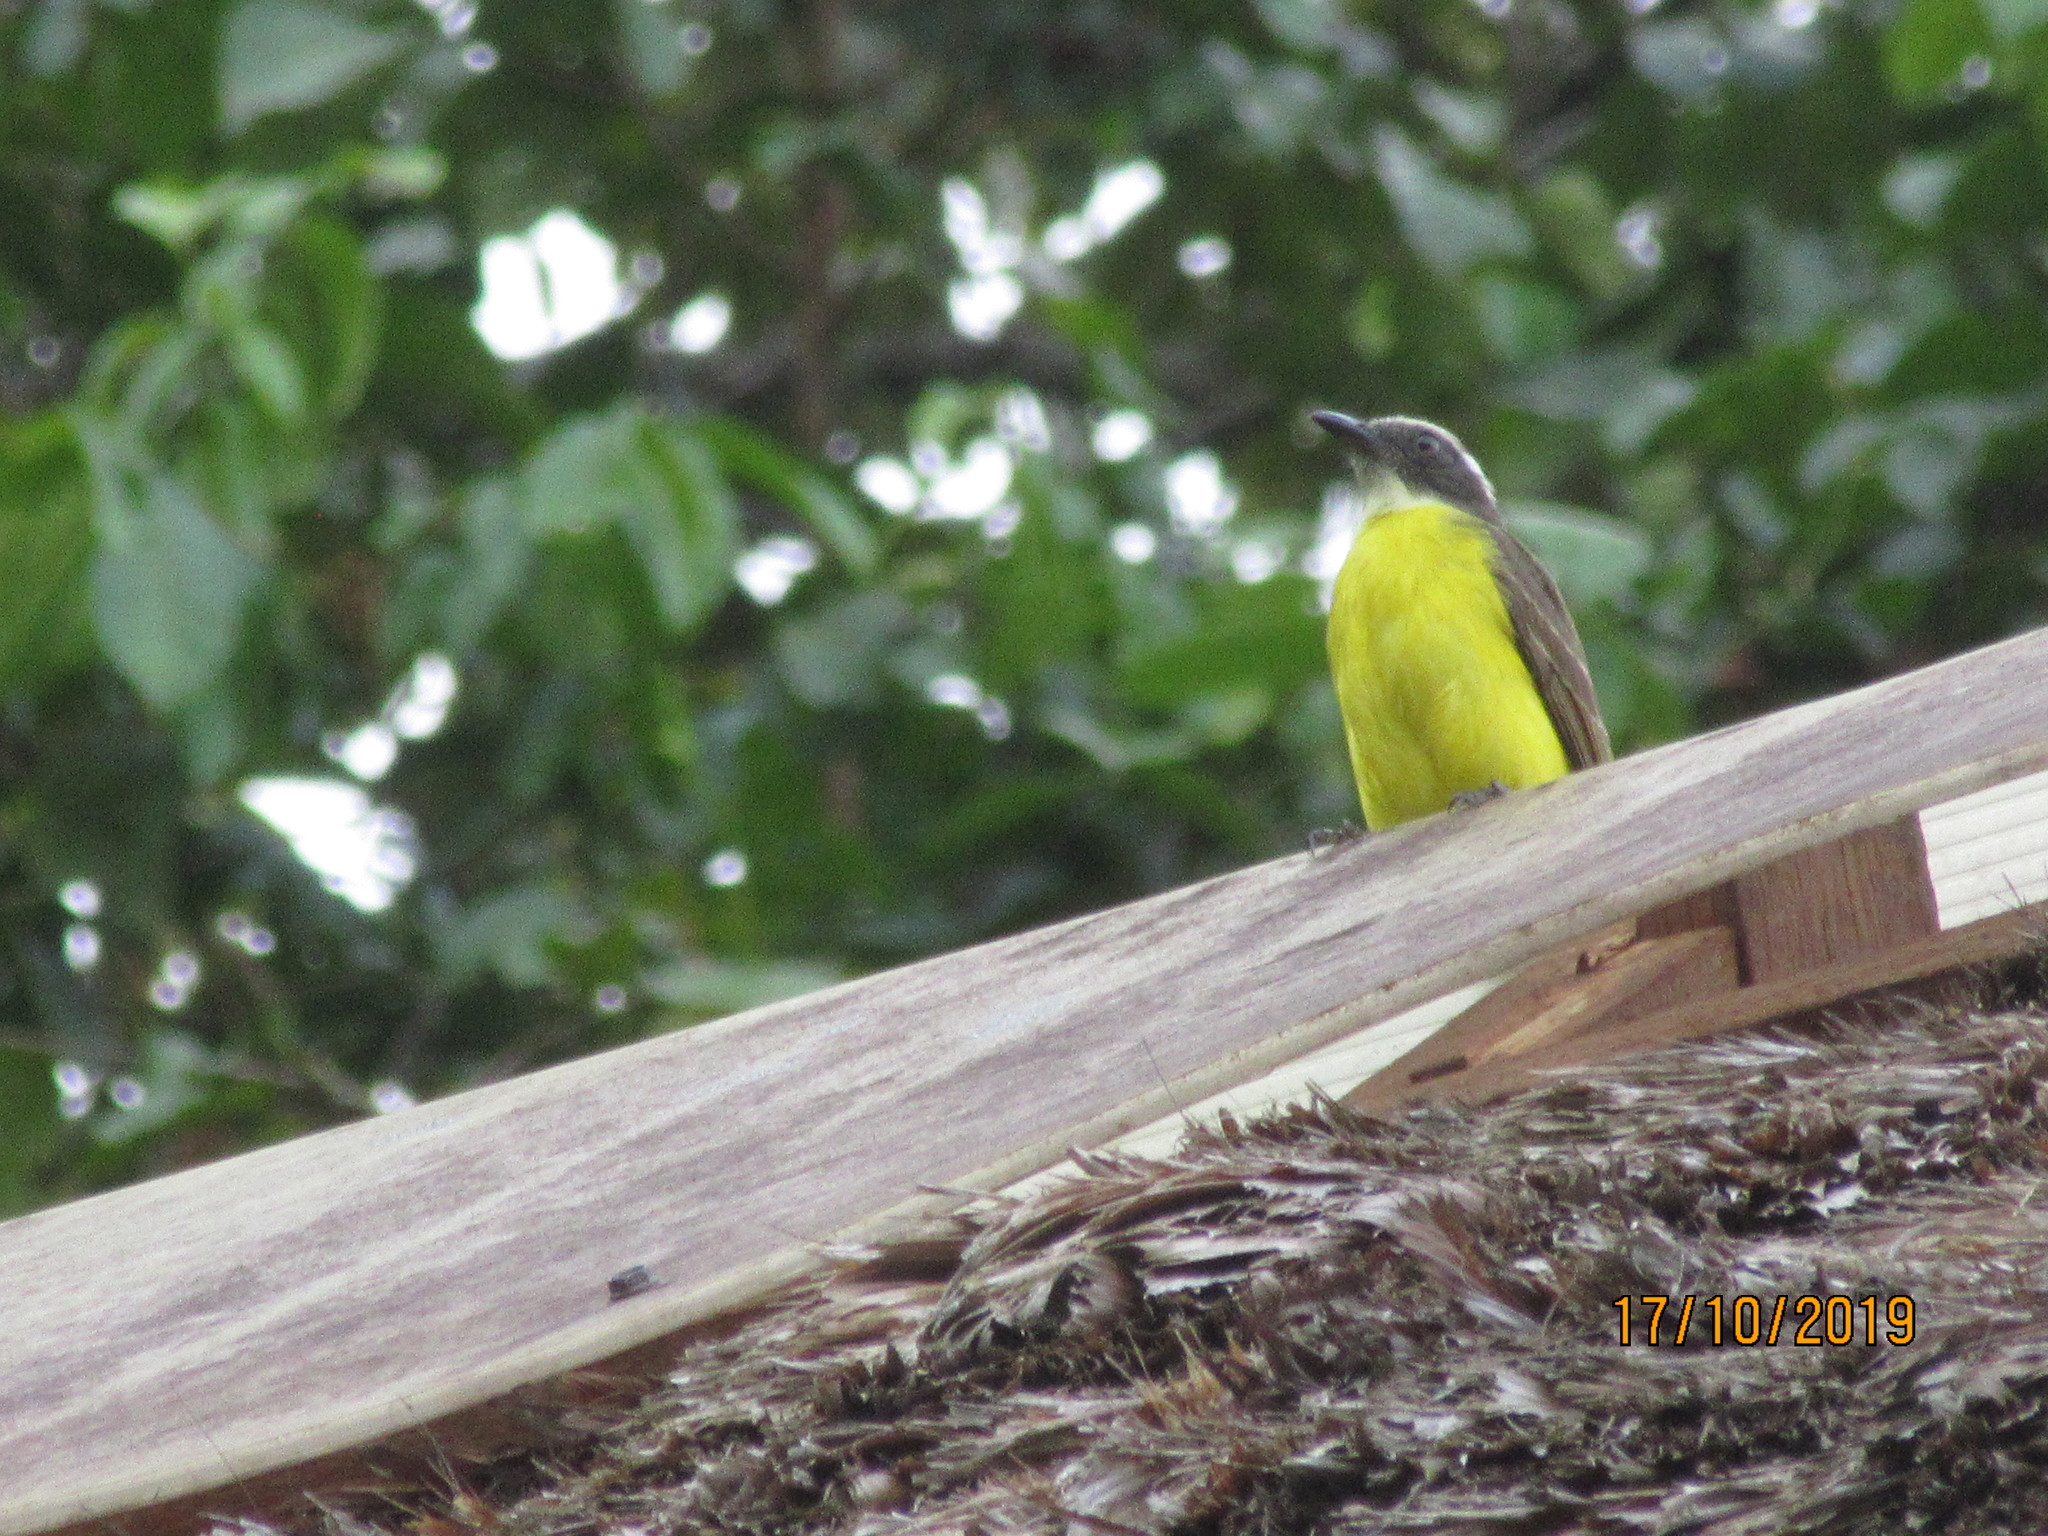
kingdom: Animalia
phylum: Chordata
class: Aves
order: Passeriformes
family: Tyrannidae
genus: Myiozetetes
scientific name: Myiozetetes similis
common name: Social flycatcher
